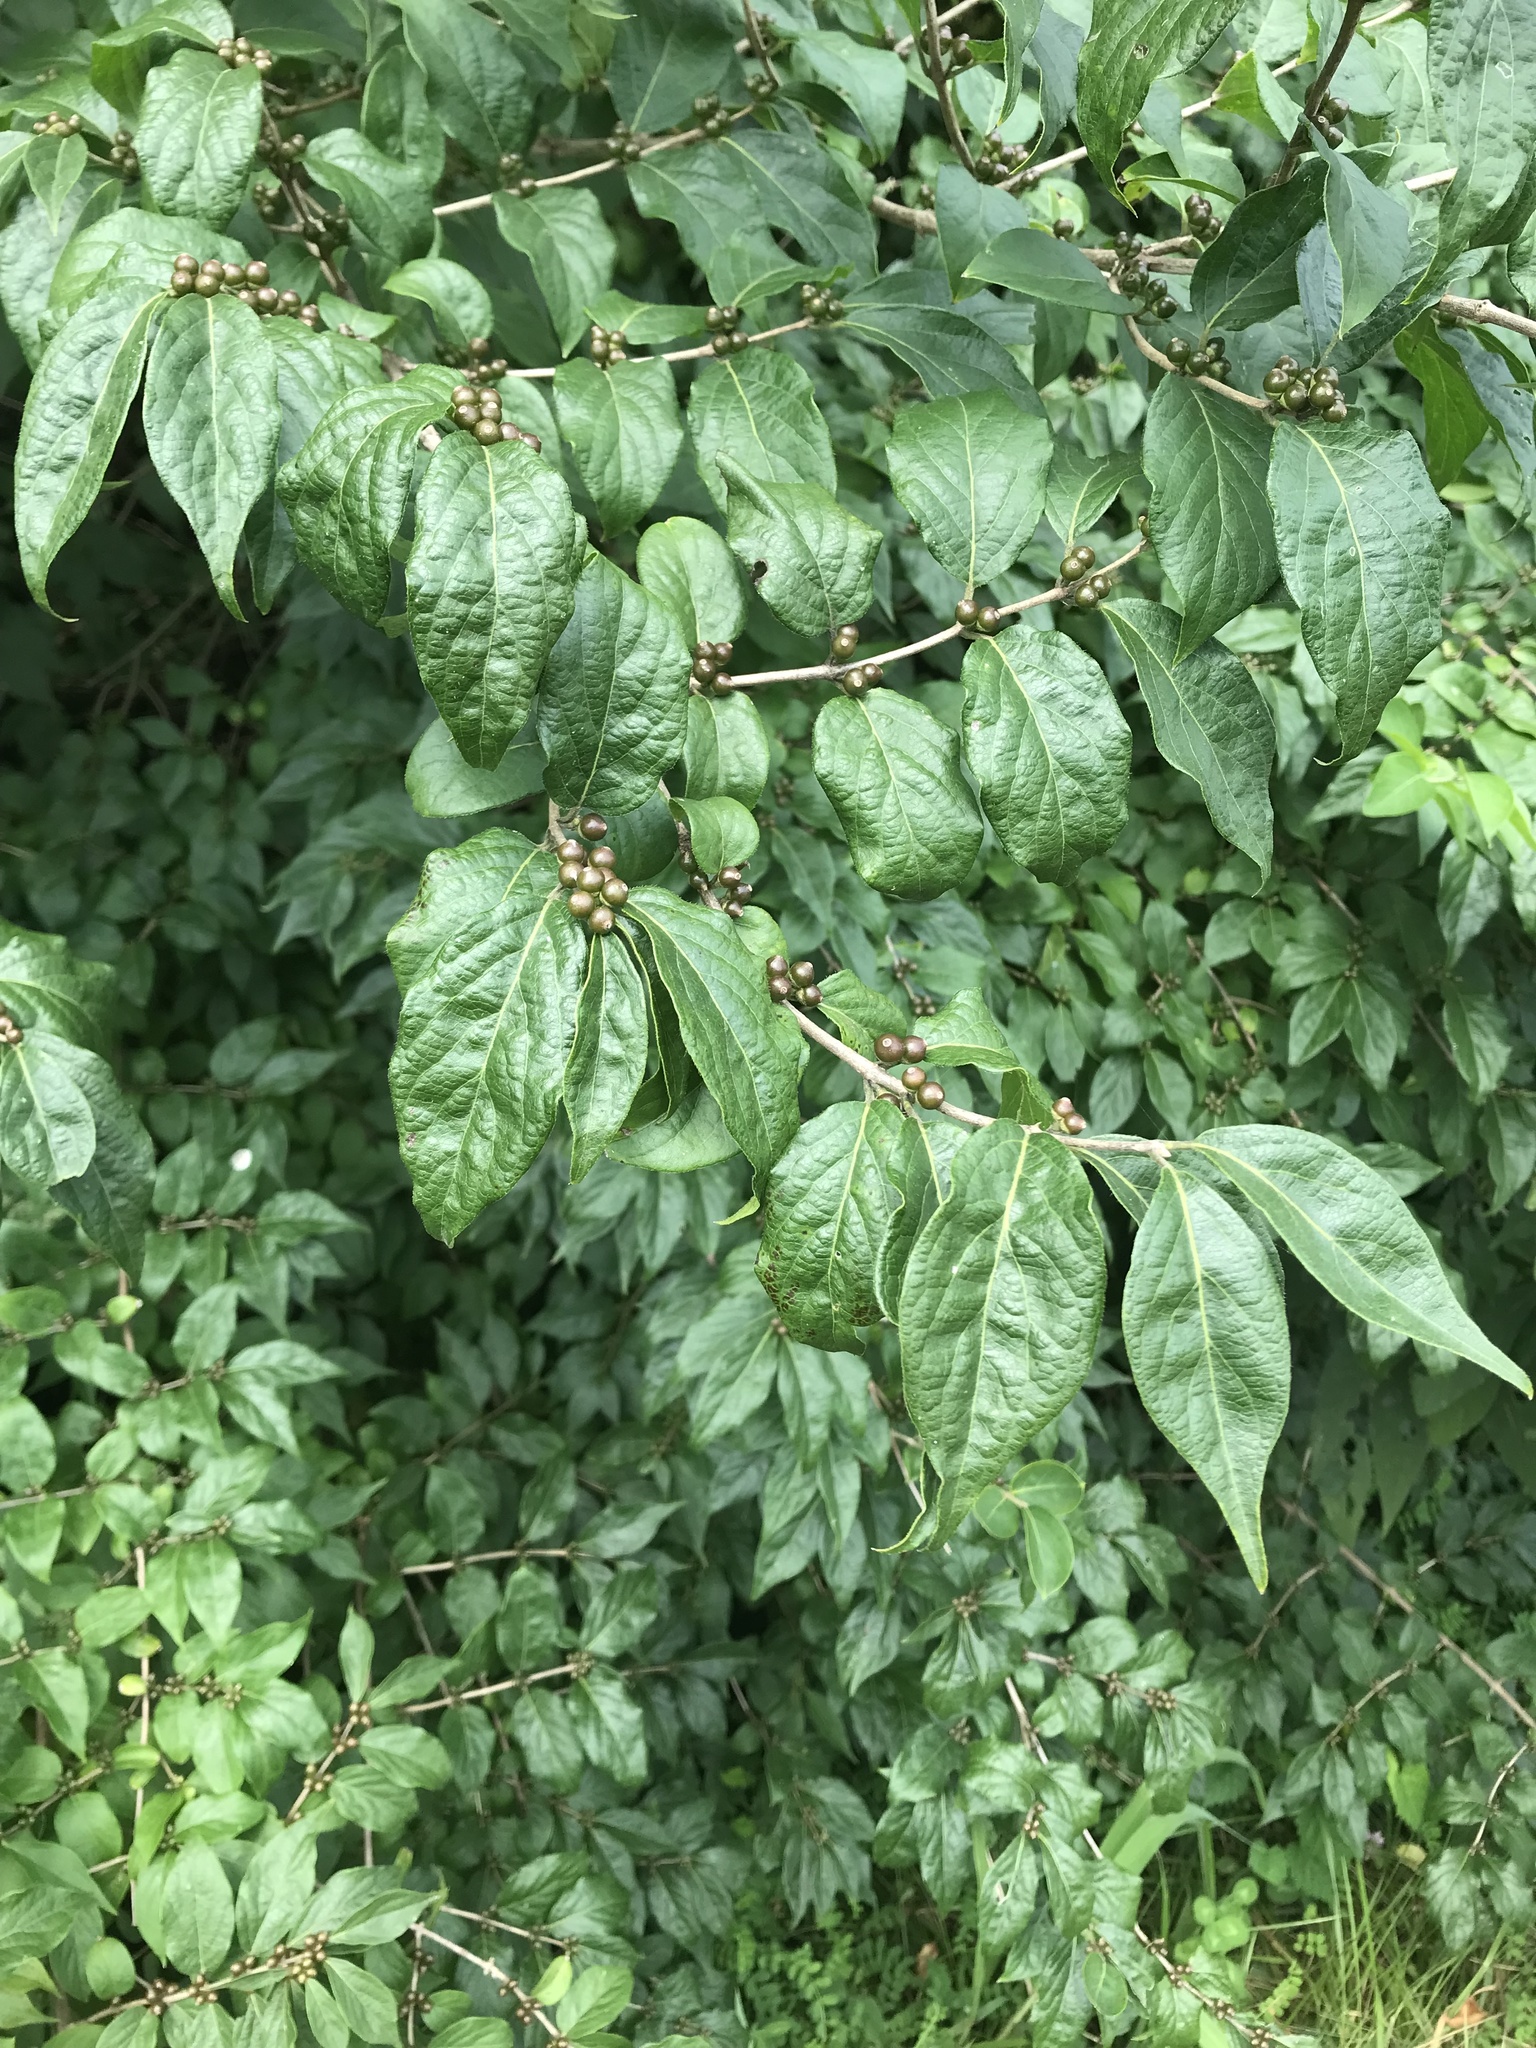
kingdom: Plantae
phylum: Tracheophyta
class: Magnoliopsida
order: Dipsacales
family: Caprifoliaceae
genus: Lonicera
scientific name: Lonicera maackii
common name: Amur honeysuckle
